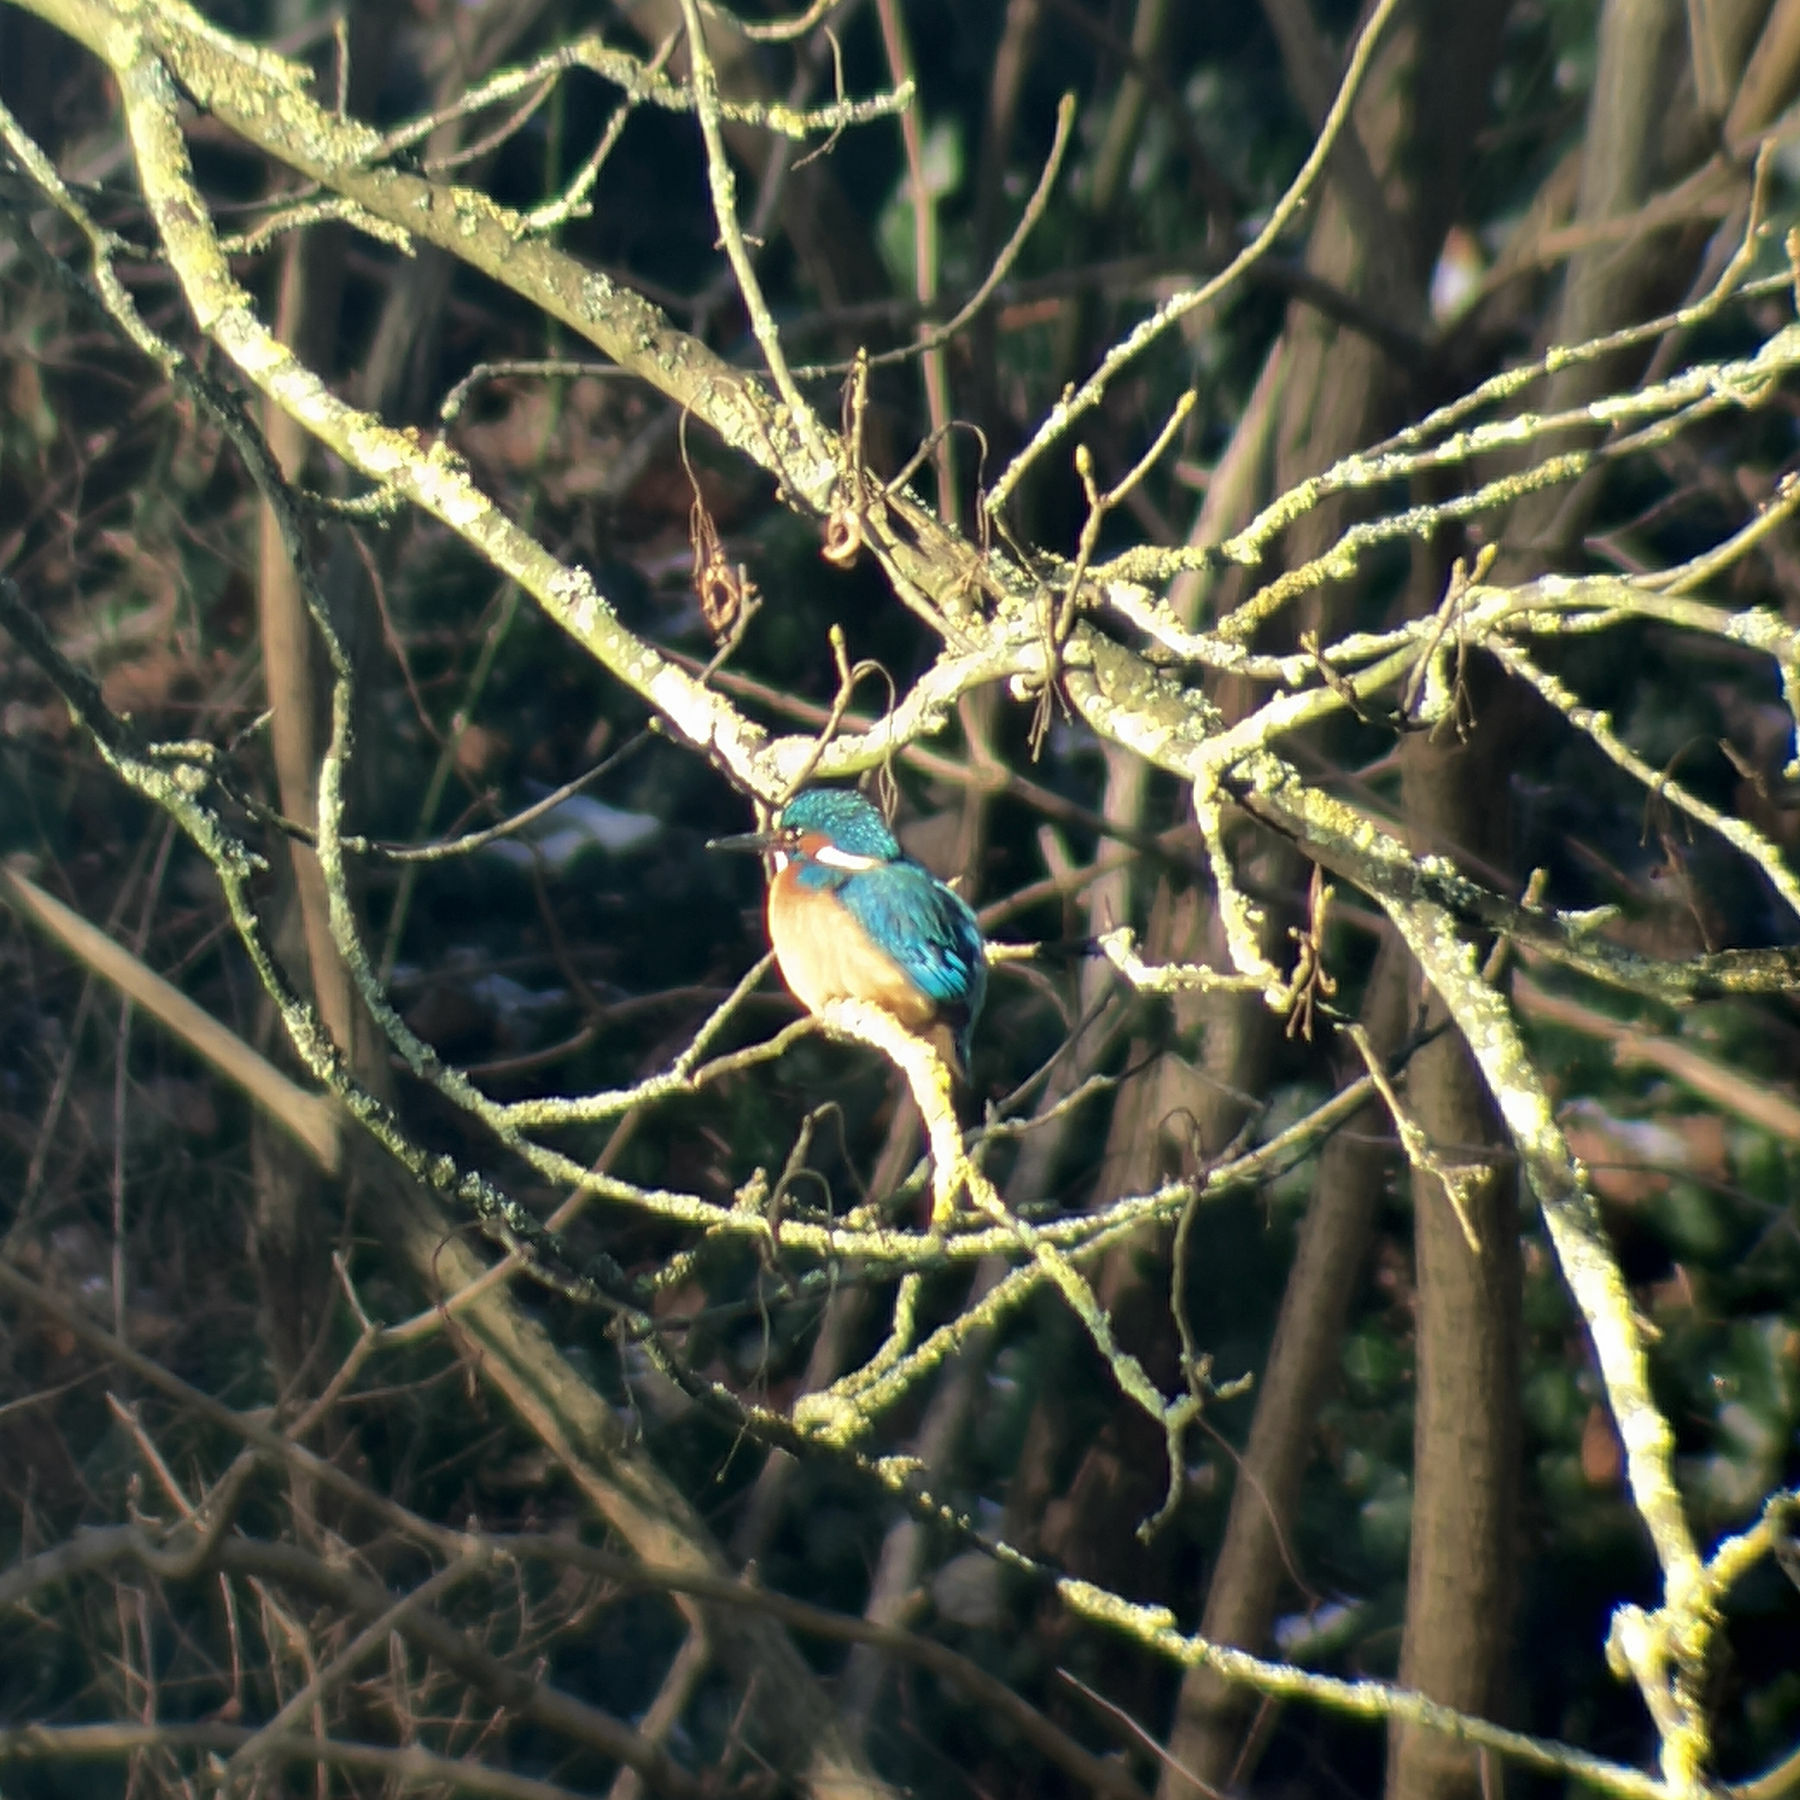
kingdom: Animalia
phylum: Chordata
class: Aves
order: Coraciiformes
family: Alcedinidae
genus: Alcedo
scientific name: Alcedo atthis
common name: Common kingfisher
